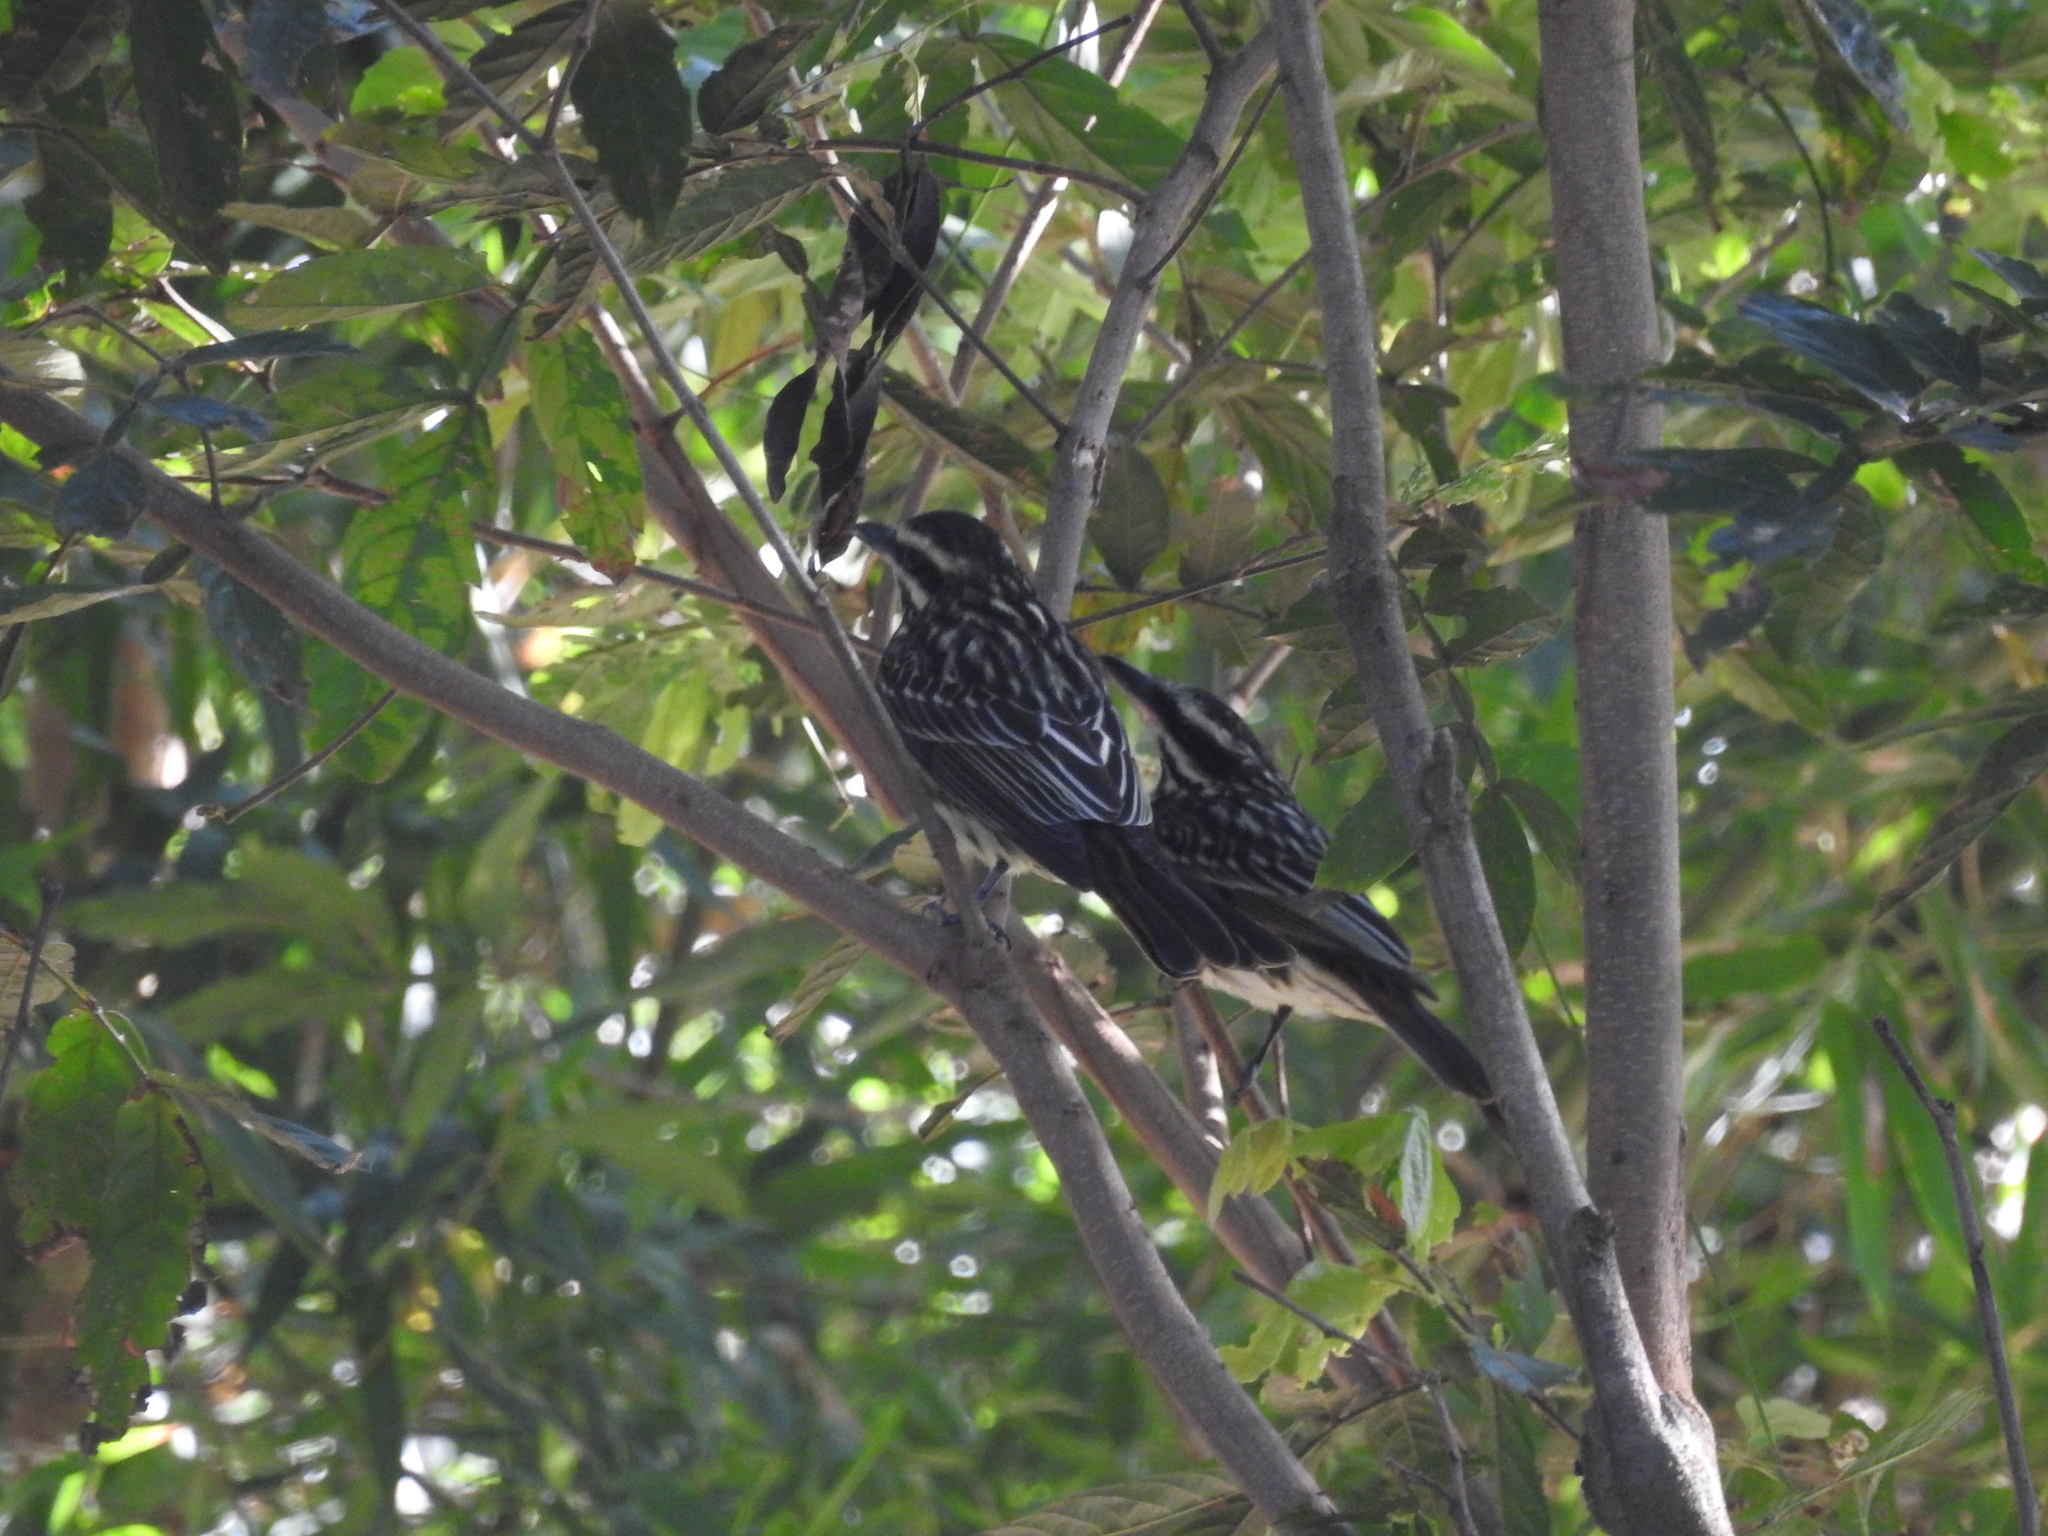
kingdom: Animalia
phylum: Chordata
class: Aves
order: Passeriformes
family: Tyrannidae
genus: Myiodynastes
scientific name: Myiodynastes maculatus
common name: Streaked flycatcher
